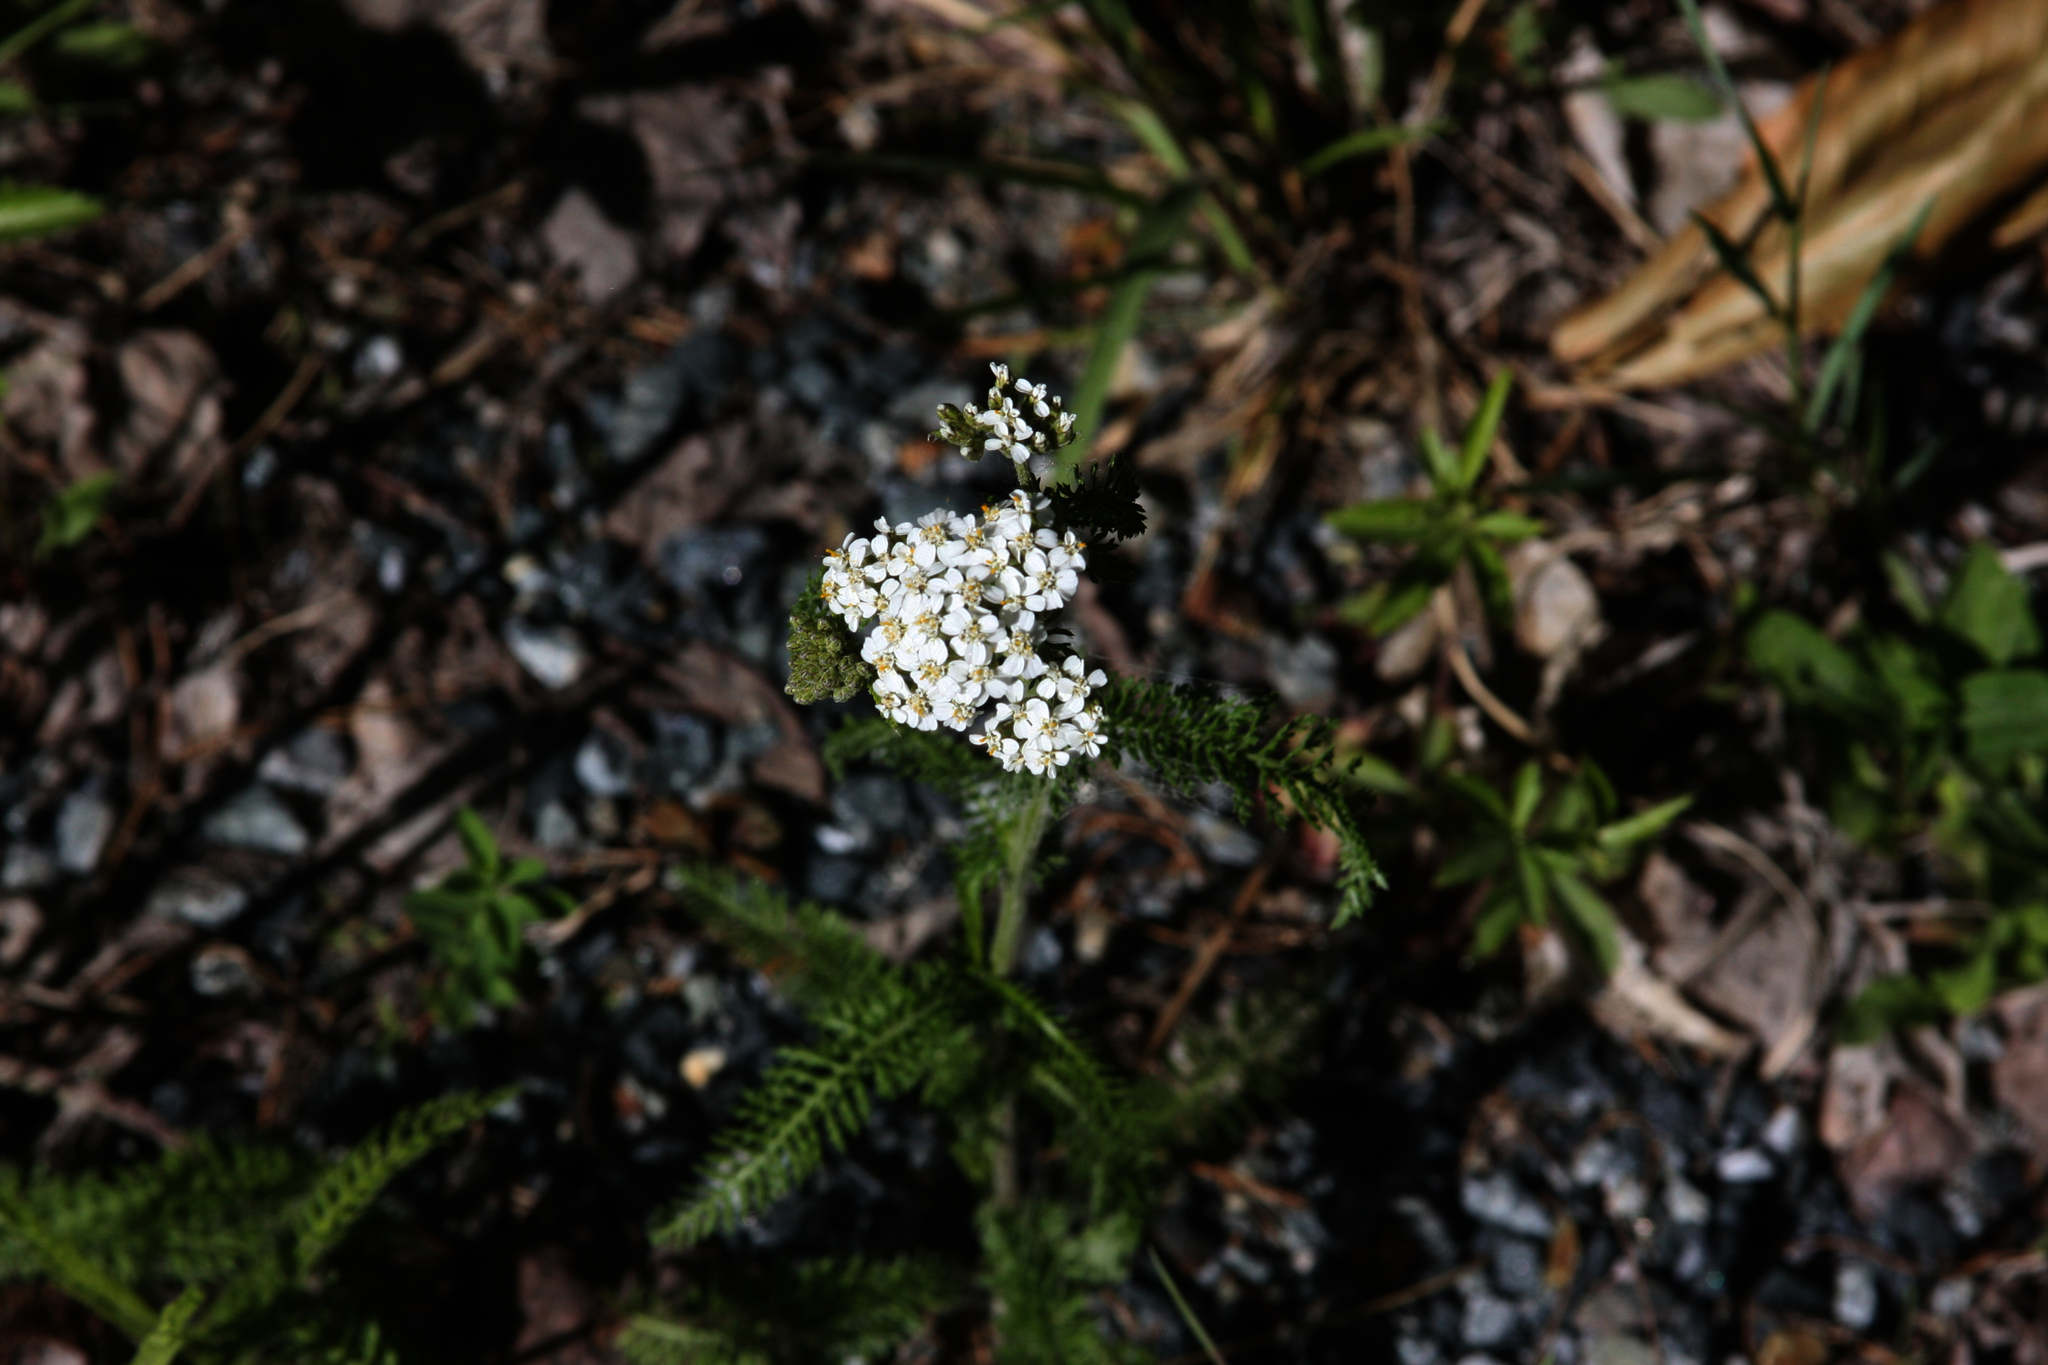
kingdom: Plantae
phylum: Tracheophyta
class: Magnoliopsida
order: Asterales
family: Asteraceae
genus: Achillea
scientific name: Achillea millefolium
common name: Yarrow
